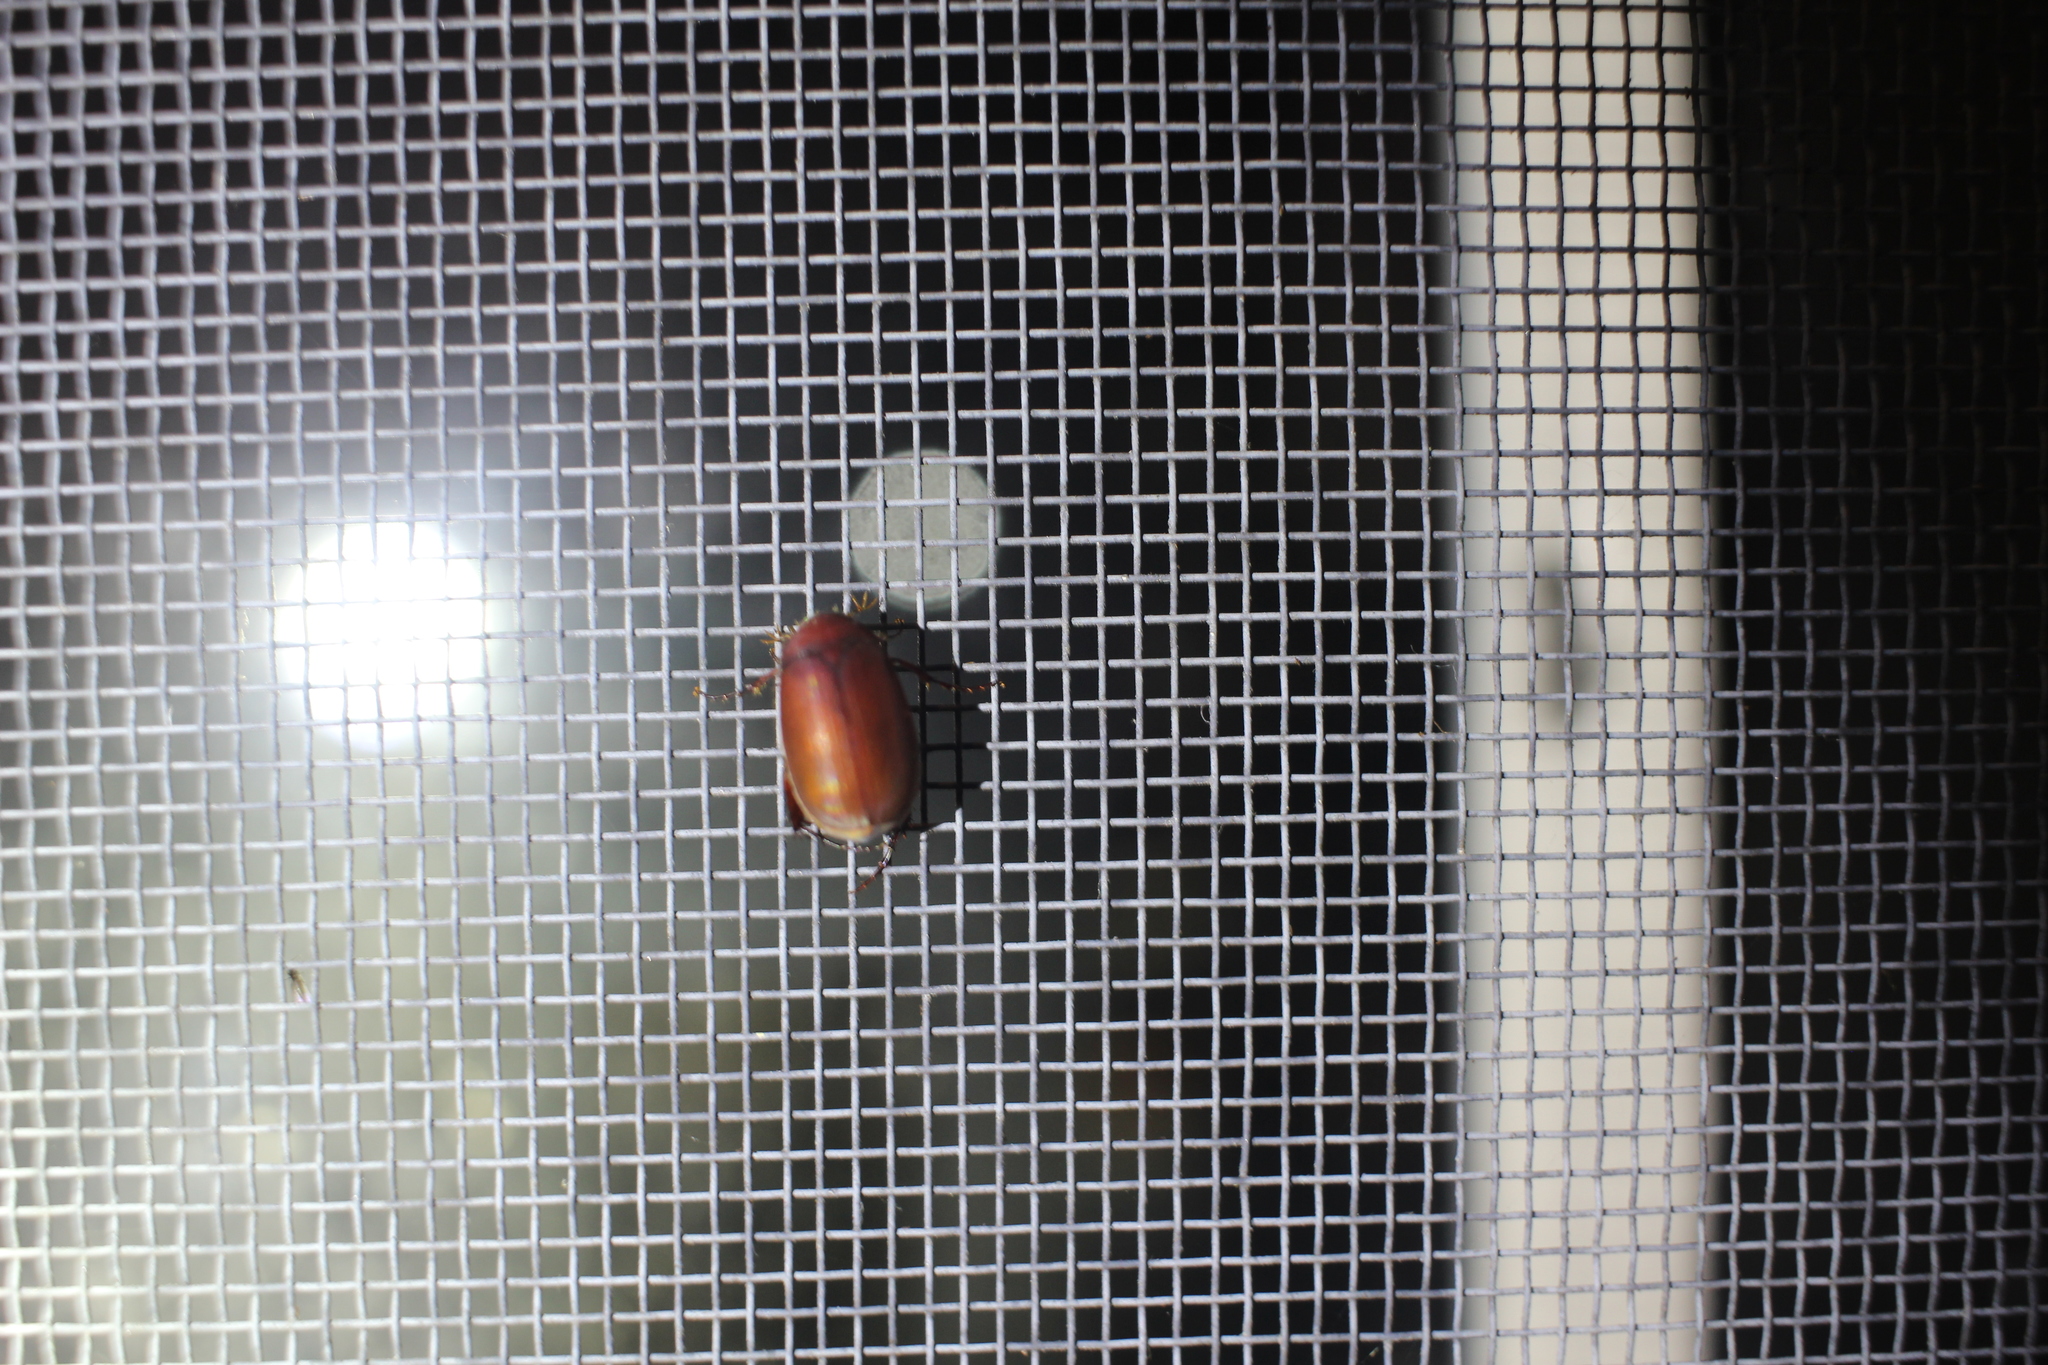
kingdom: Animalia
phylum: Arthropoda
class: Insecta
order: Coleoptera
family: Scarabaeidae
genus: Maladera
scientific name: Maladera formosae
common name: Asiatic garden beetle
